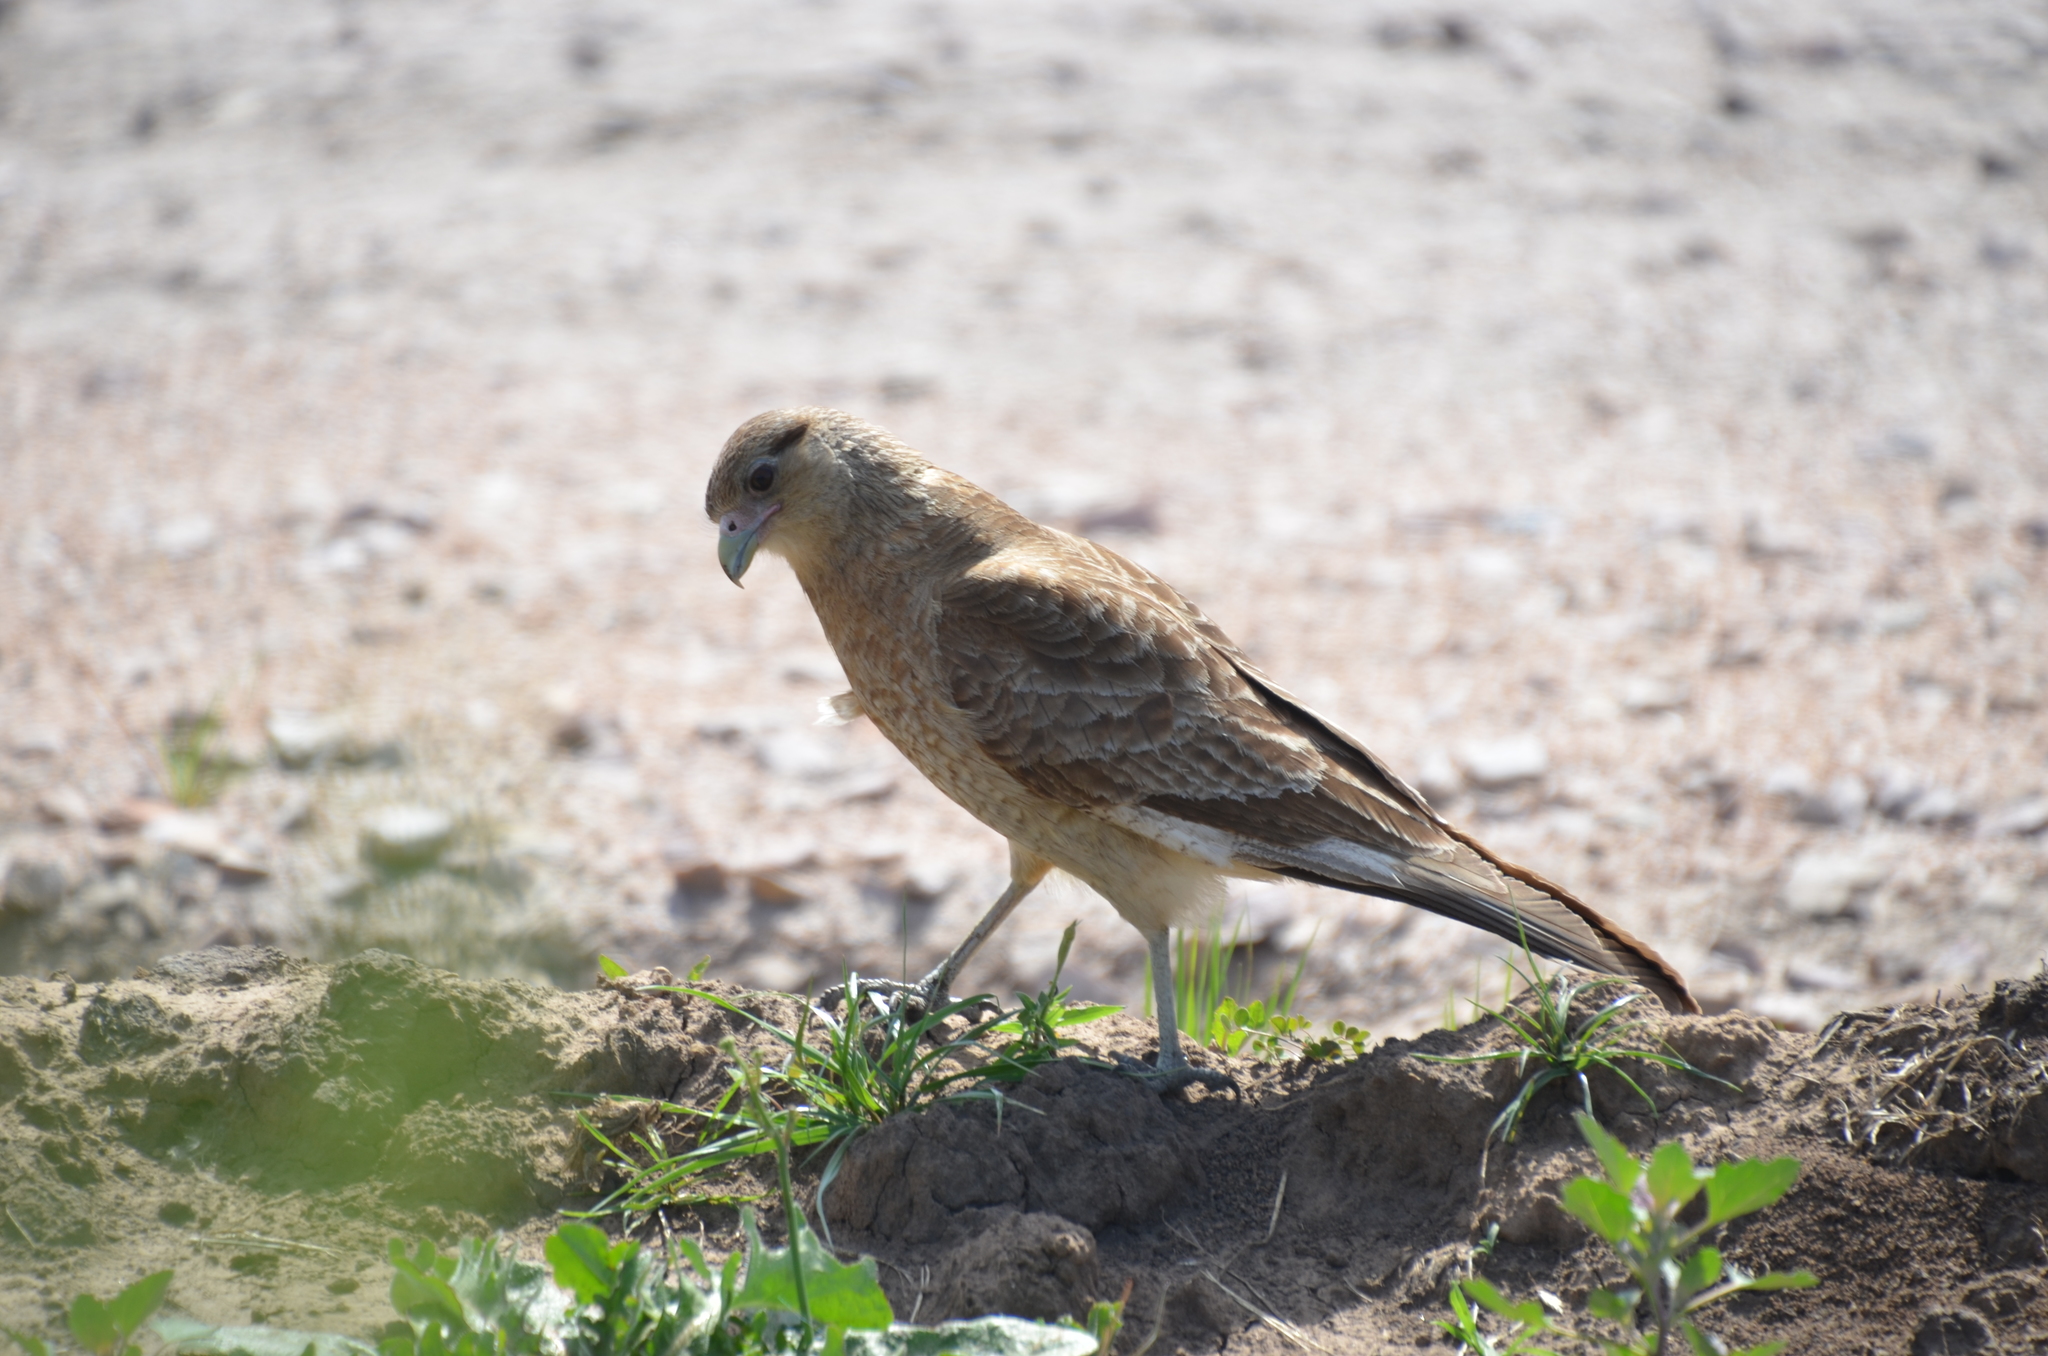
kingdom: Animalia
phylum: Chordata
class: Aves
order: Falconiformes
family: Falconidae
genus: Daptrius
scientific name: Daptrius
